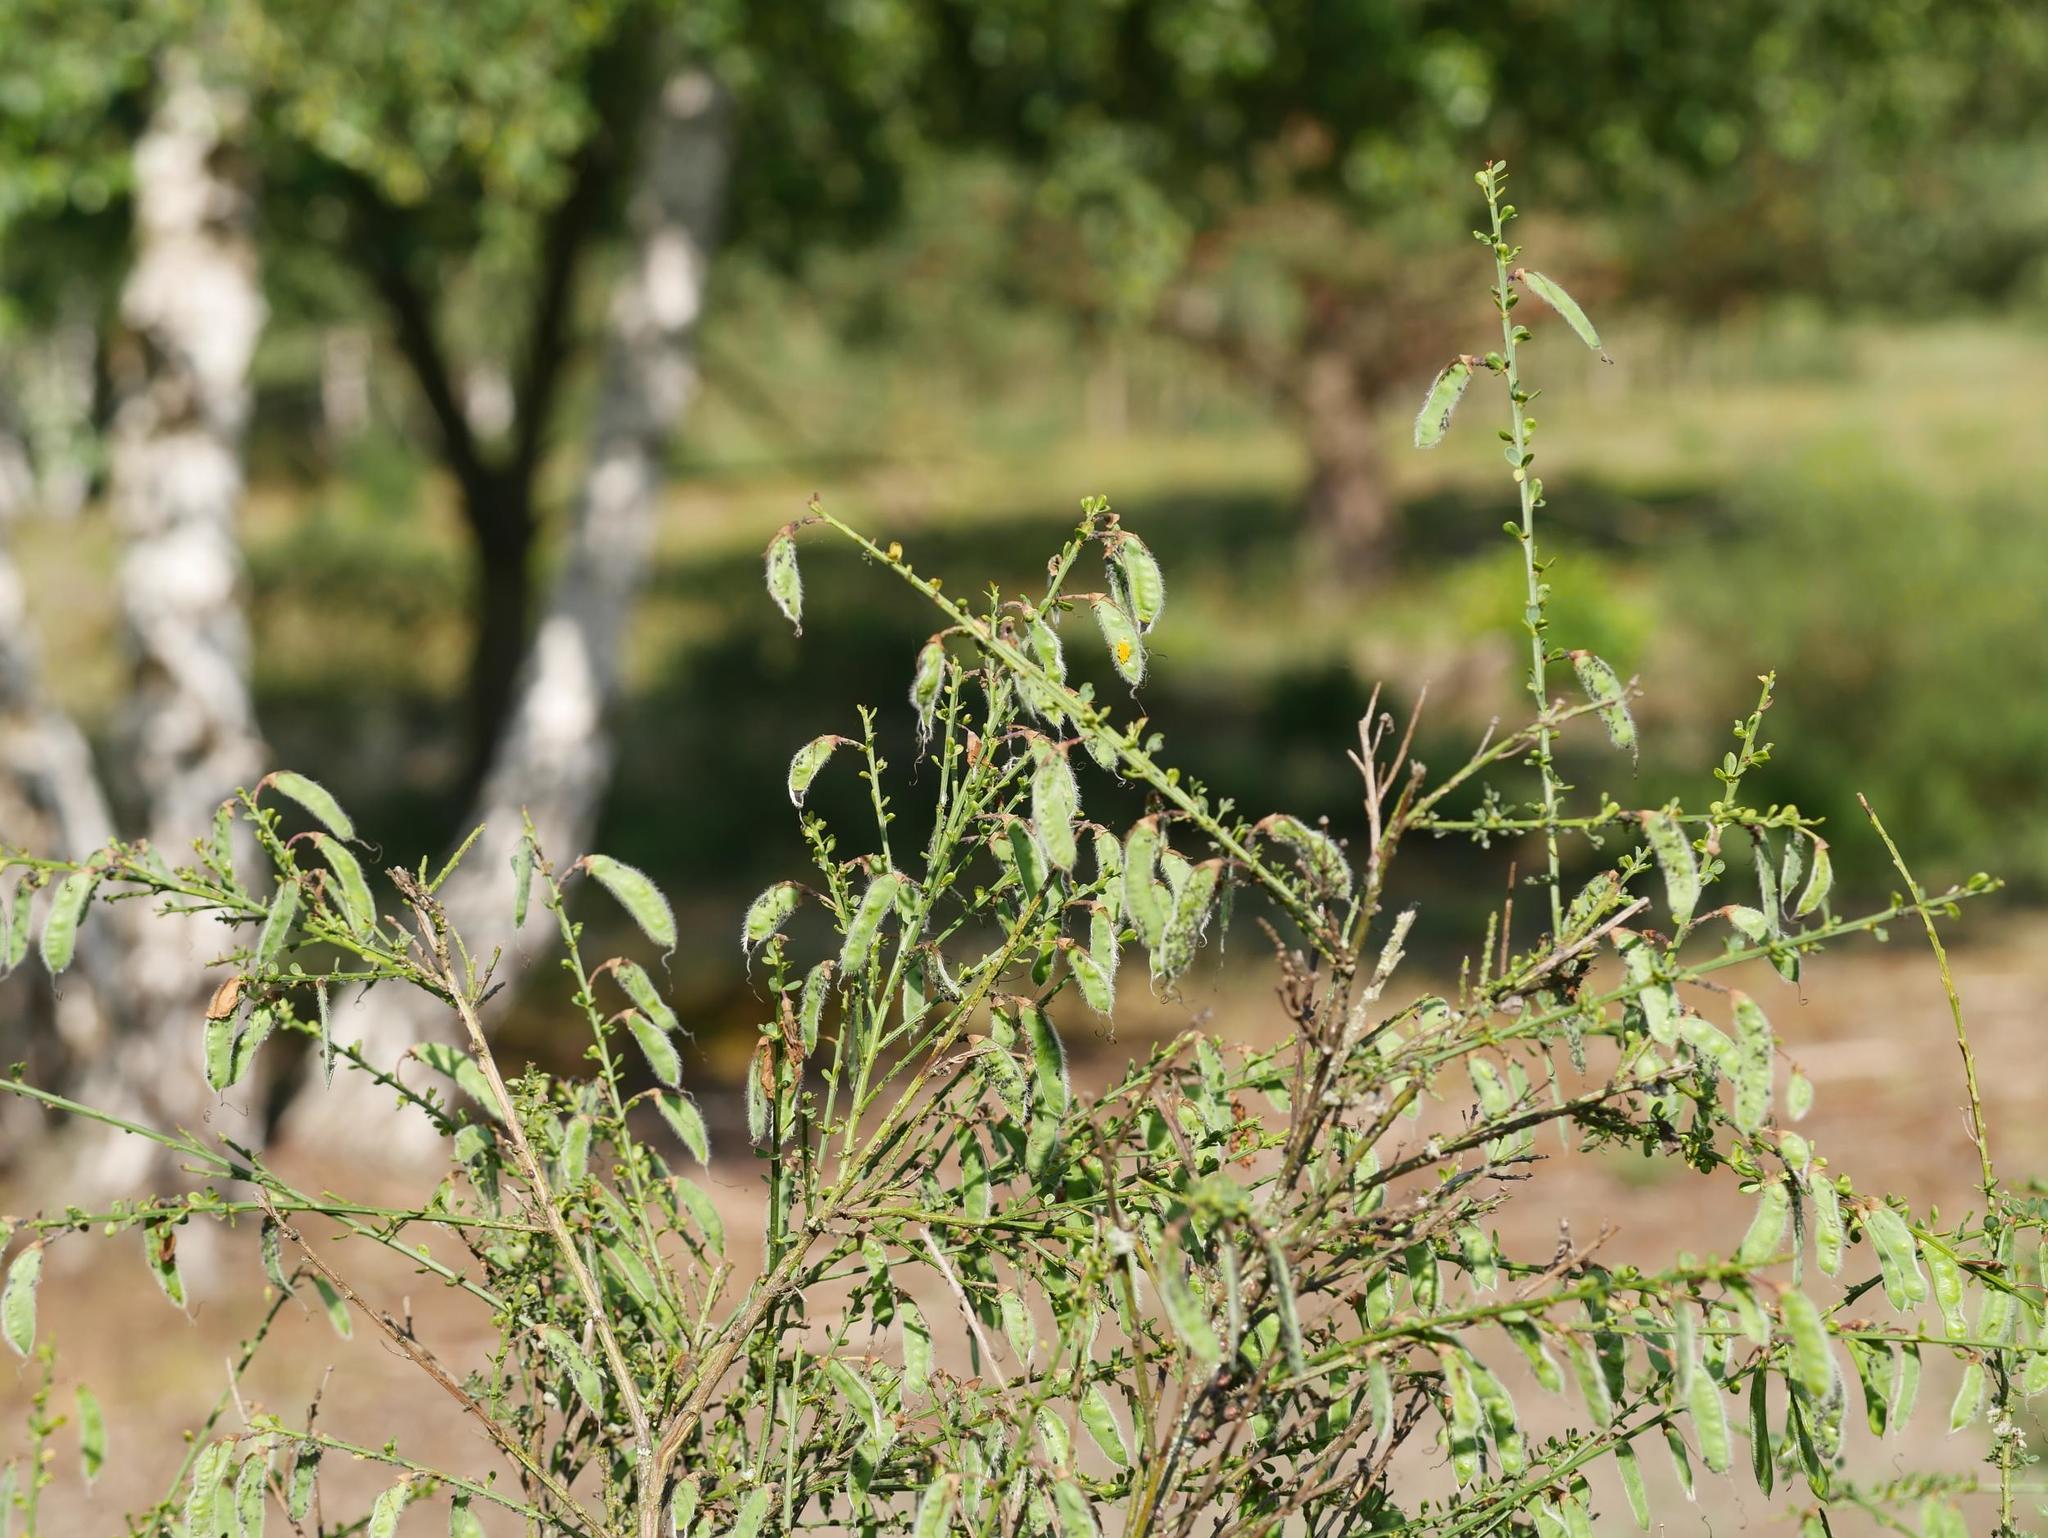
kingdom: Plantae
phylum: Tracheophyta
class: Magnoliopsida
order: Fabales
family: Fabaceae
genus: Cytisus
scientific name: Cytisus scoparius
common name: Scotch broom
